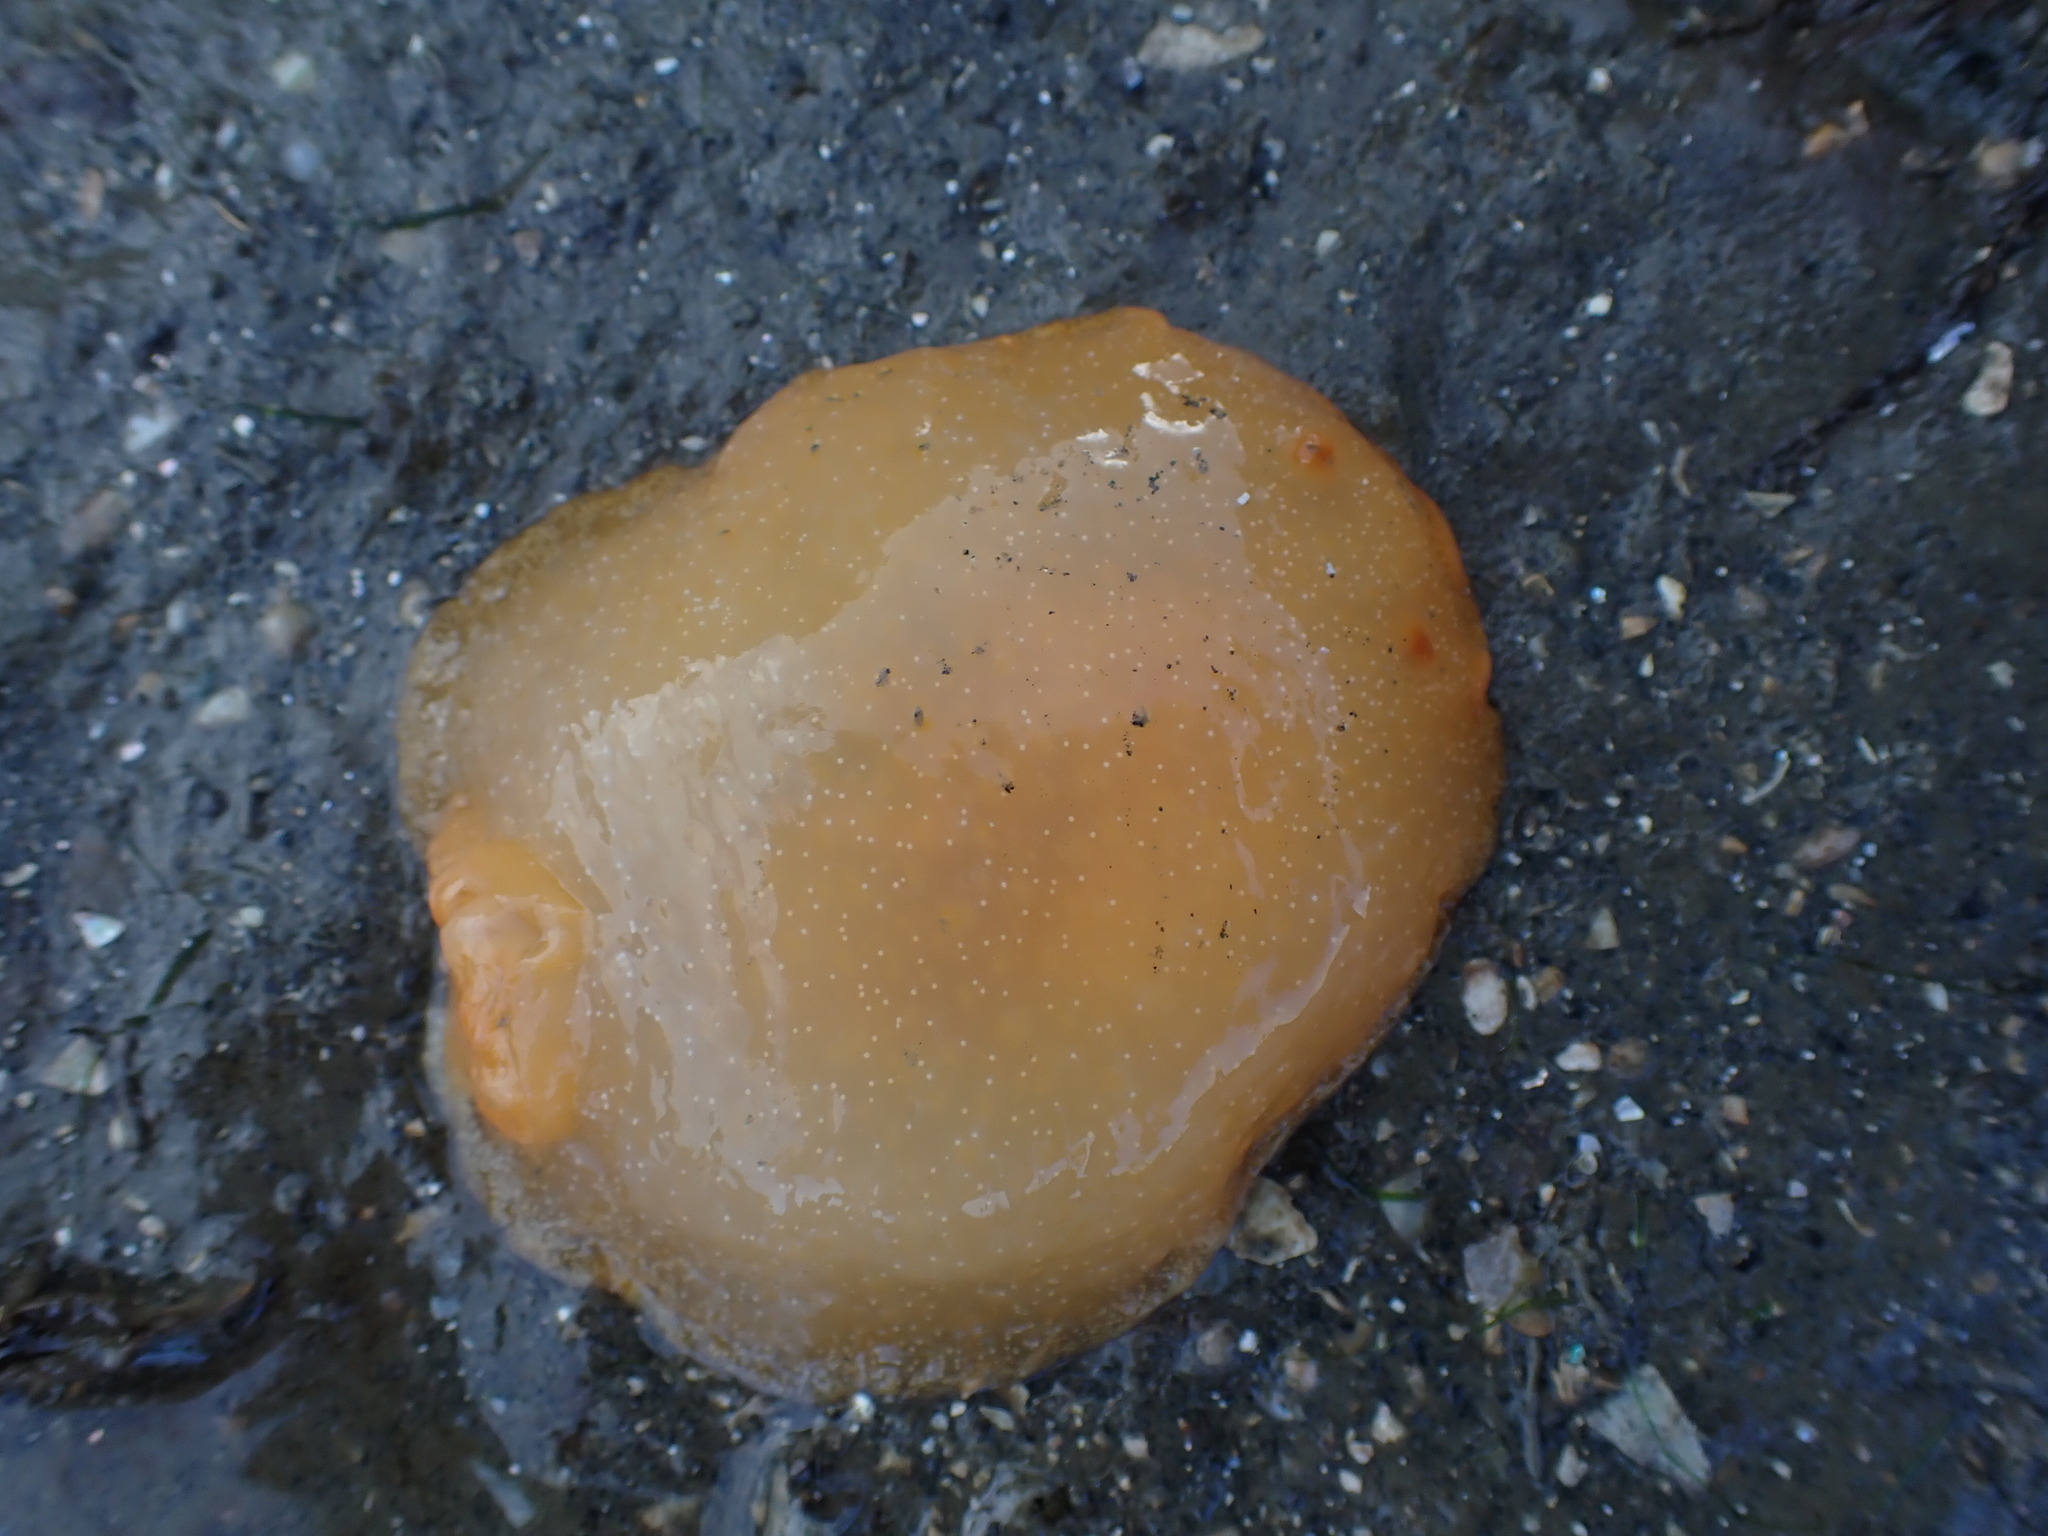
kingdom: Animalia
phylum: Mollusca
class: Gastropoda
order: Nudibranchia
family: Dendrodorididae
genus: Dendrodoris
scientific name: Dendrodoris citrina
